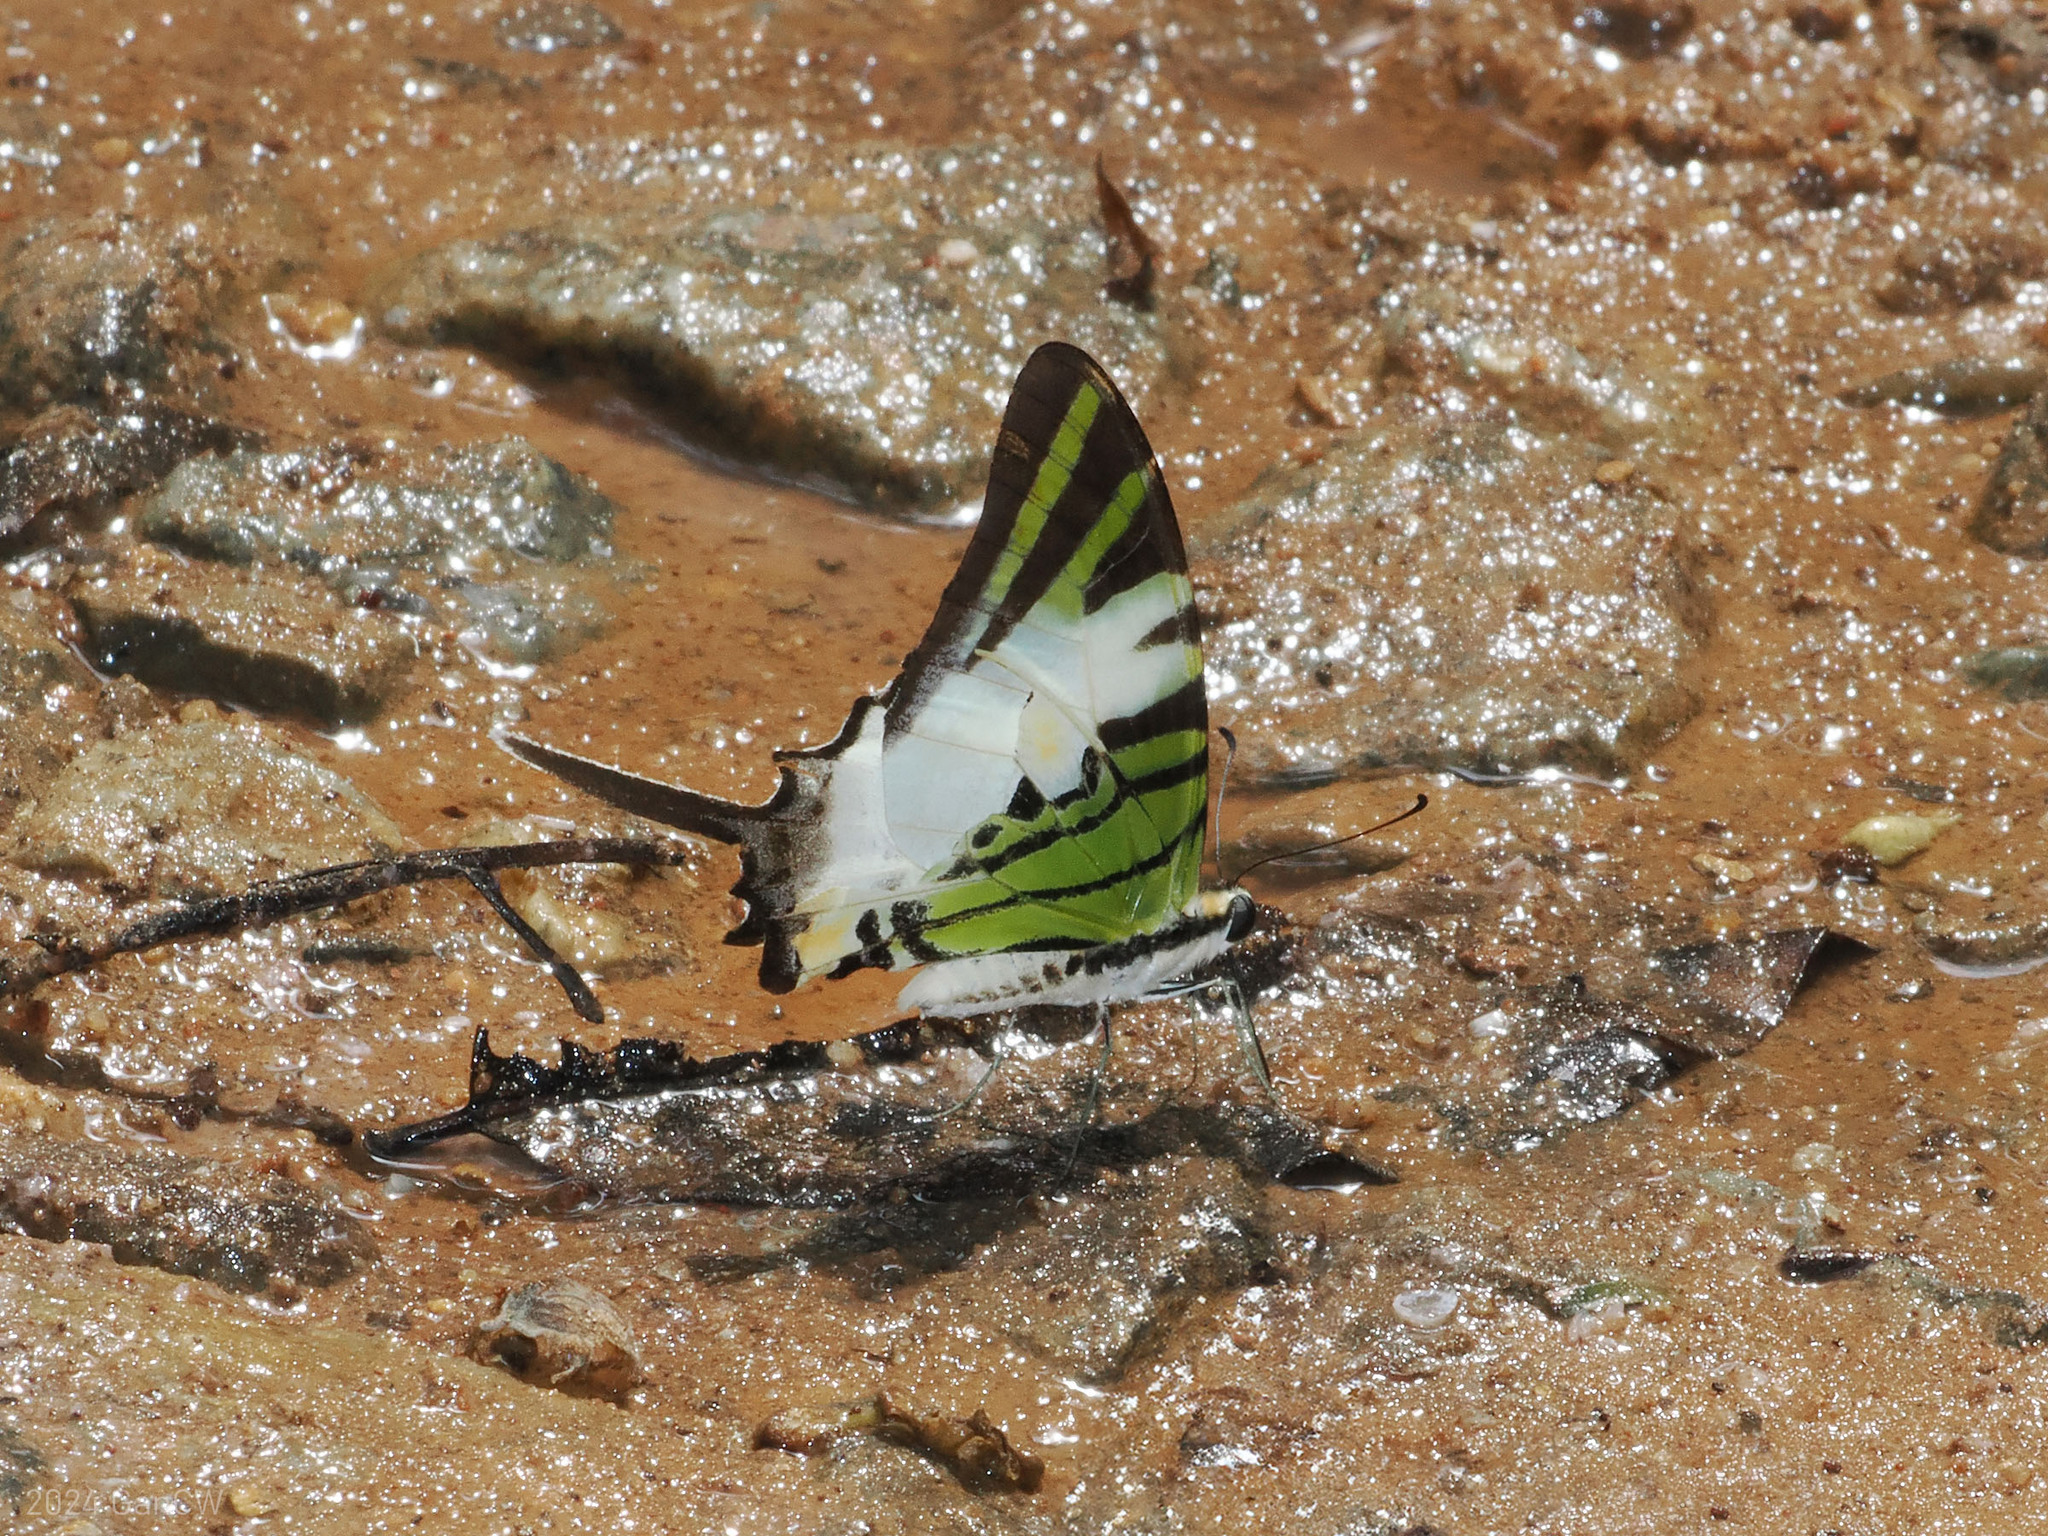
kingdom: Animalia
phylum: Arthropoda
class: Insecta
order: Lepidoptera
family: Papilionidae
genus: Graphium
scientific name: Graphium antiphates
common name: Fivebar swordtail
